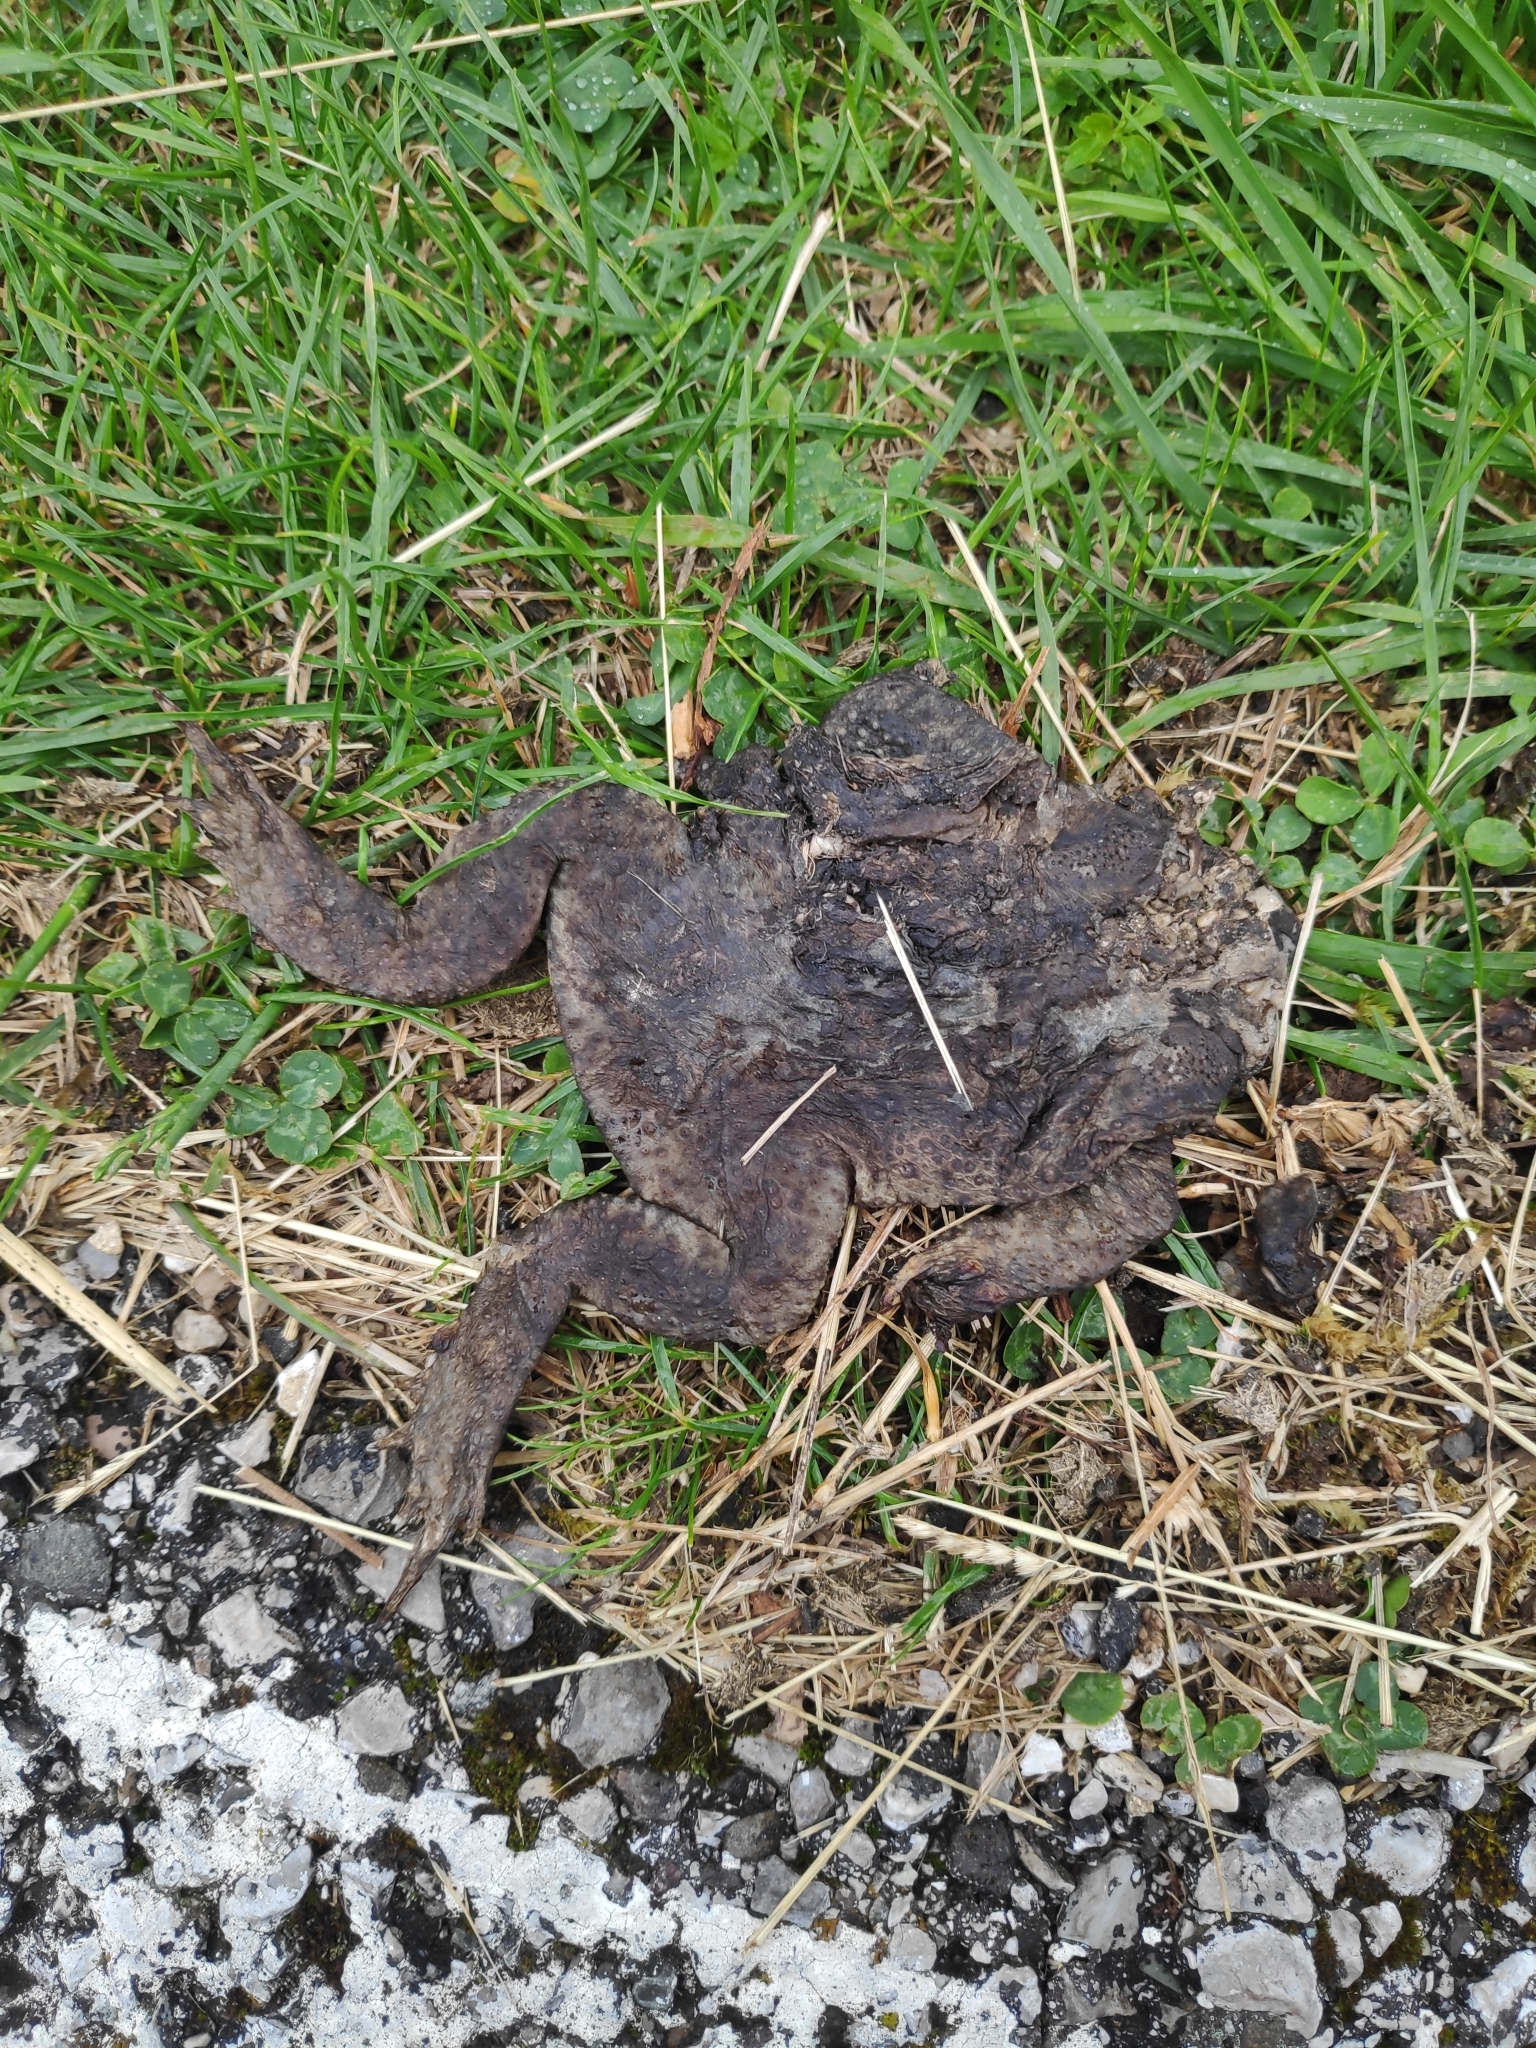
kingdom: Animalia
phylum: Chordata
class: Amphibia
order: Anura
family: Bufonidae
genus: Bufo
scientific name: Bufo bufo
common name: Common toad
